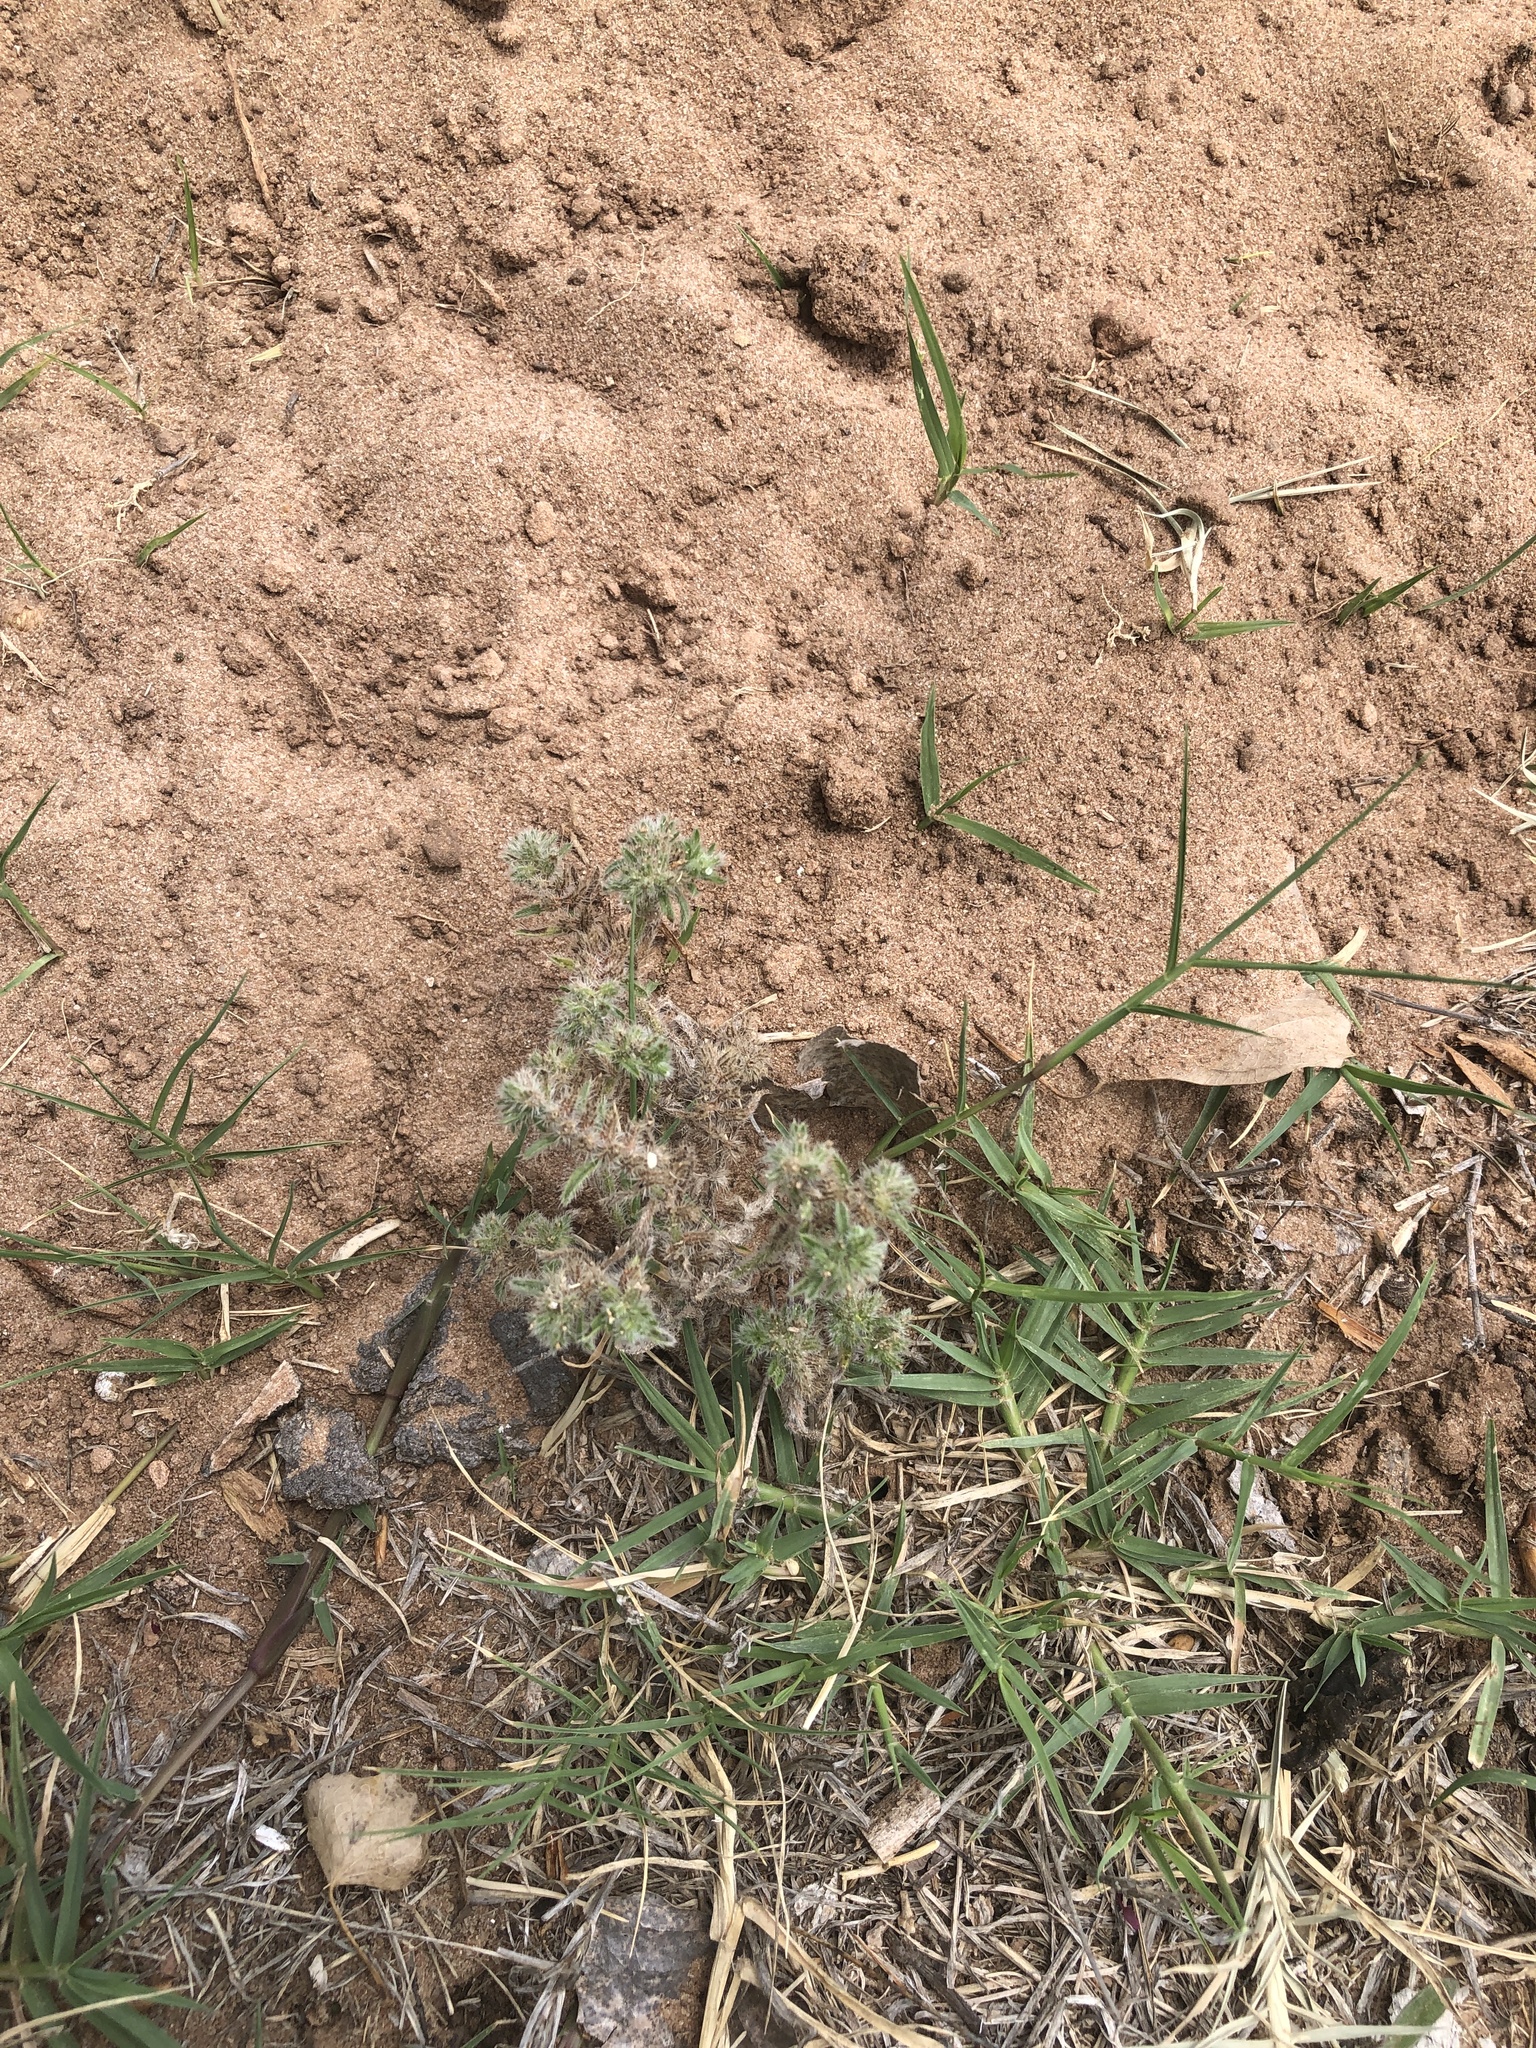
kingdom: Plantae
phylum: Tracheophyta
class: Magnoliopsida
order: Boraginales
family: Boraginaceae
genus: Cryptantha
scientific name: Cryptantha minima
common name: Little cat's-eye
